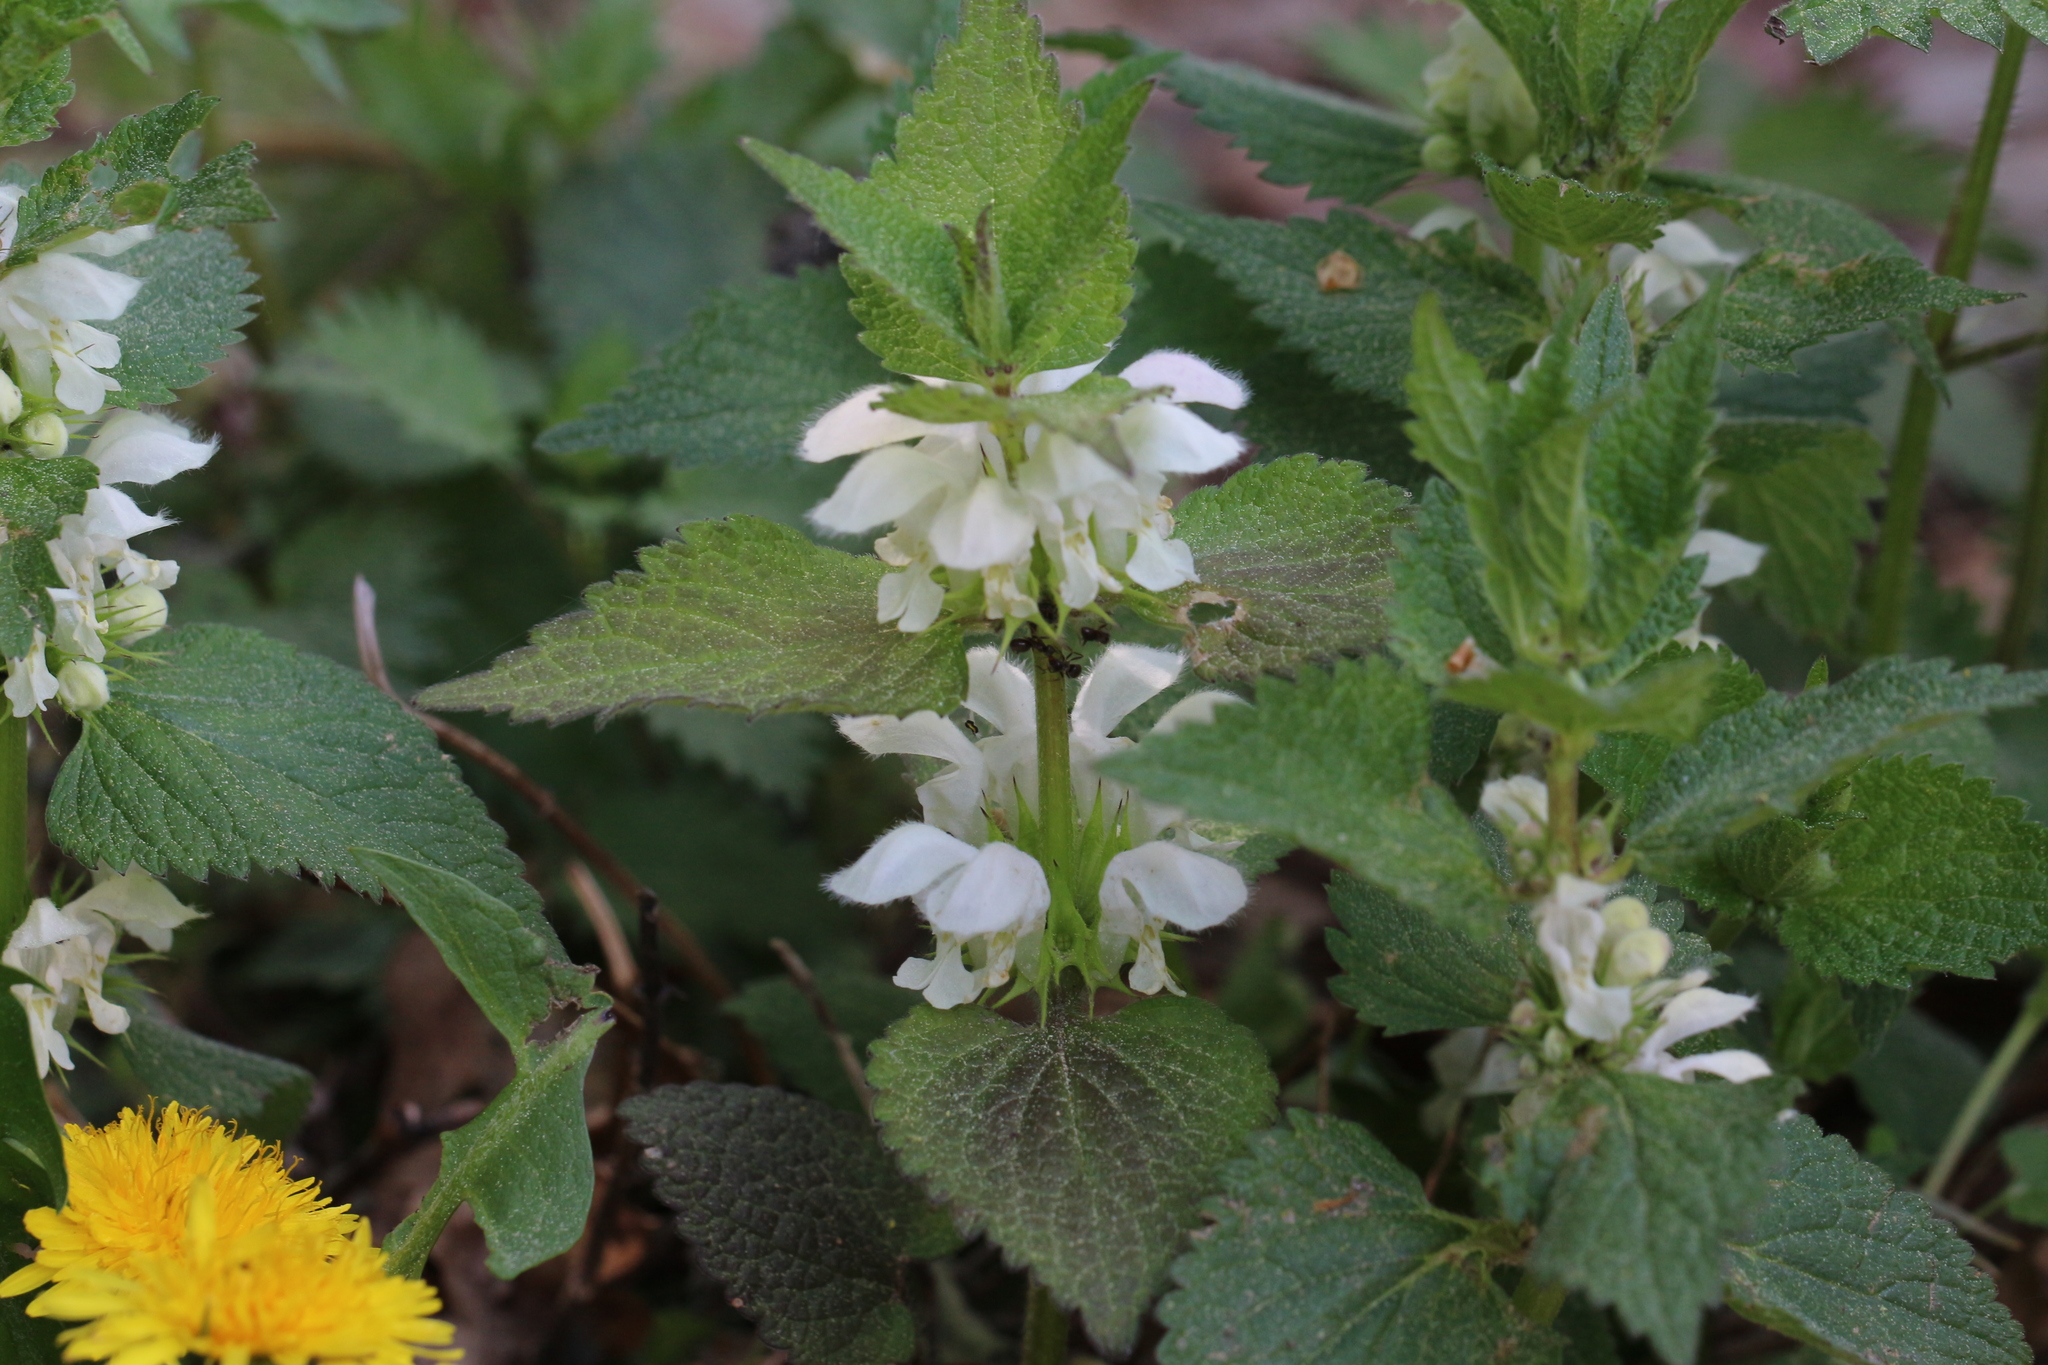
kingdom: Plantae
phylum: Tracheophyta
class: Magnoliopsida
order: Lamiales
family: Lamiaceae
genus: Lamium
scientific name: Lamium album
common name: White dead-nettle
